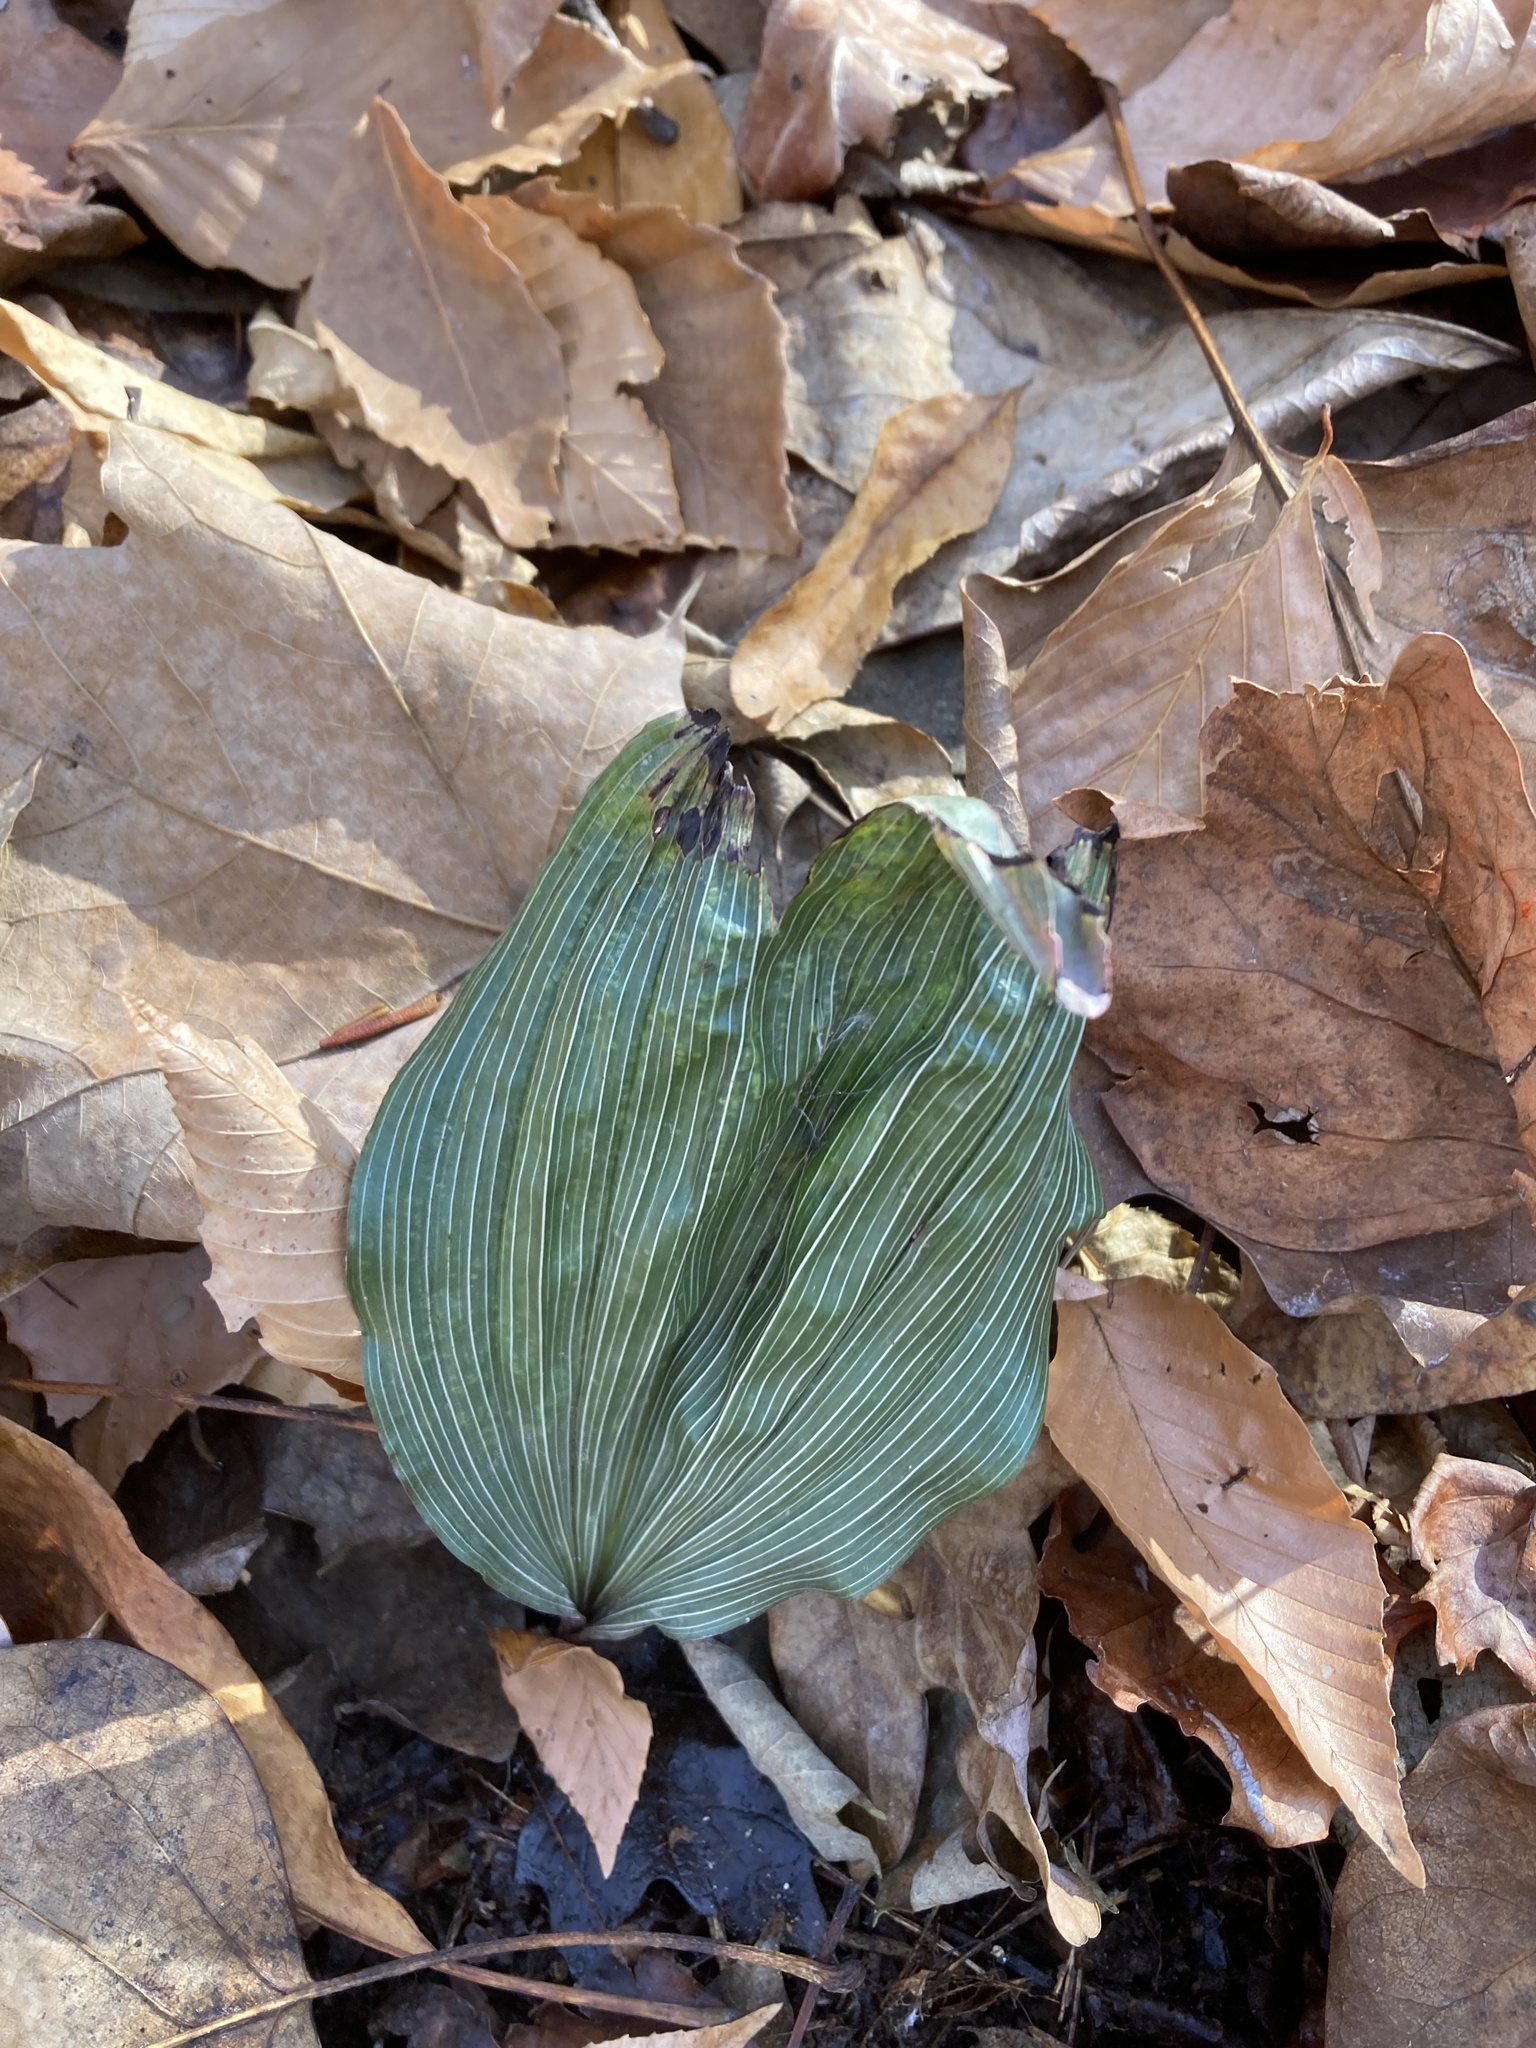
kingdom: Plantae
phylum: Tracheophyta
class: Liliopsida
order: Asparagales
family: Orchidaceae
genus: Aplectrum
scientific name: Aplectrum hyemale
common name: Adam-and-eve
